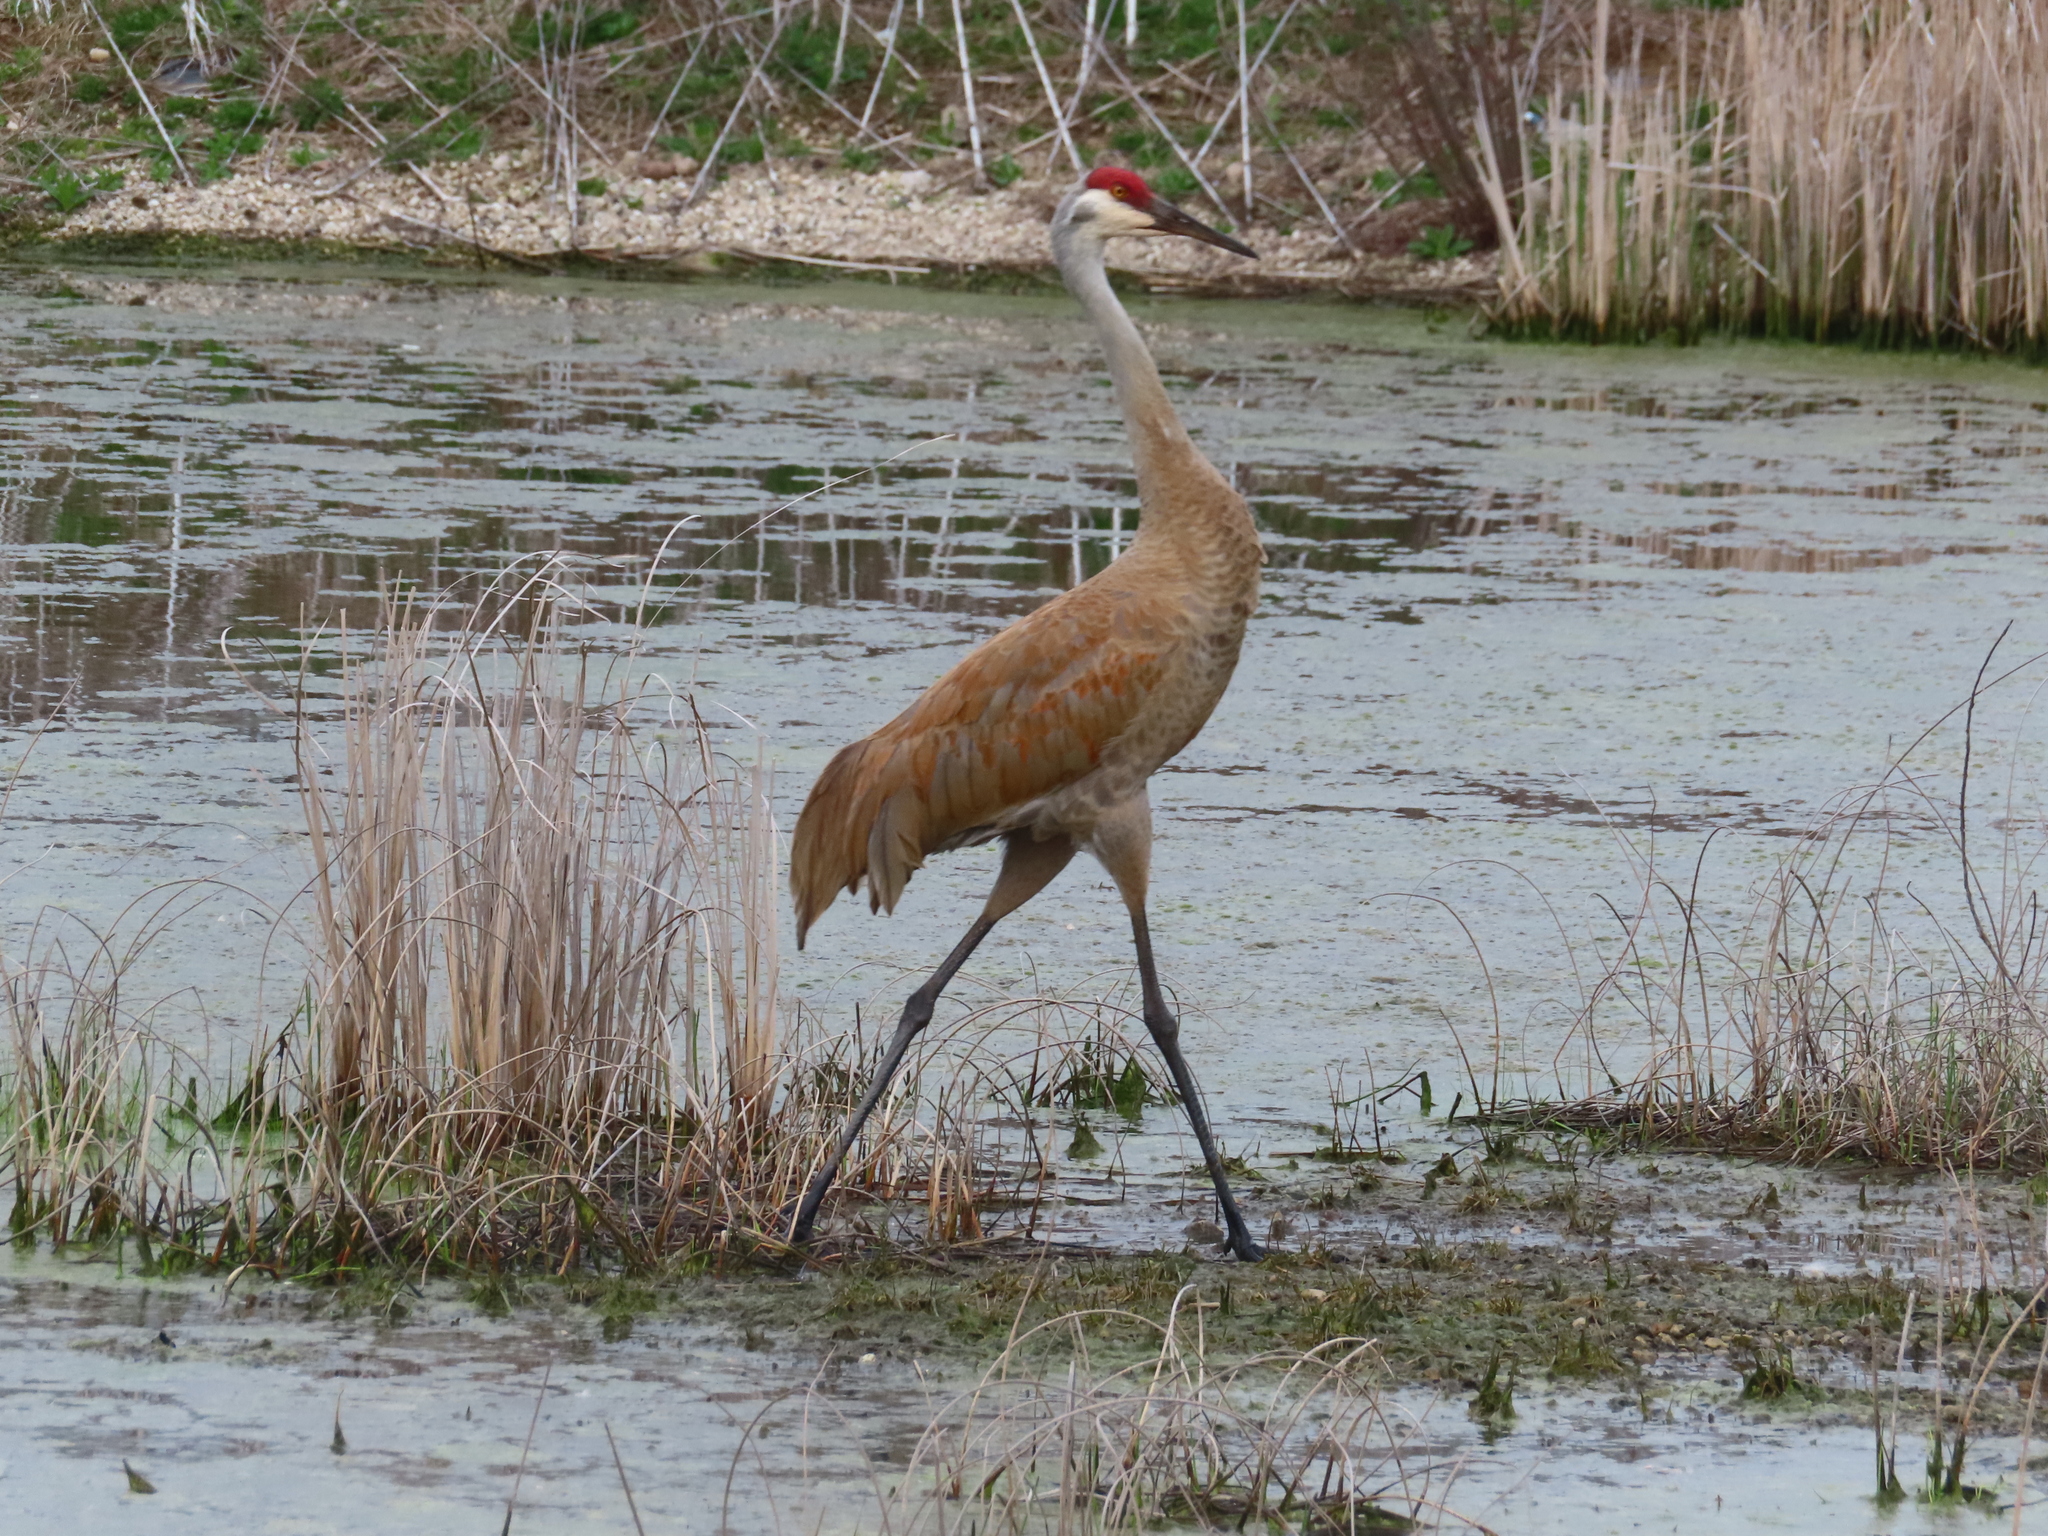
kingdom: Animalia
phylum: Chordata
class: Aves
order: Gruiformes
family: Gruidae
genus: Grus
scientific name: Grus canadensis
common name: Sandhill crane
